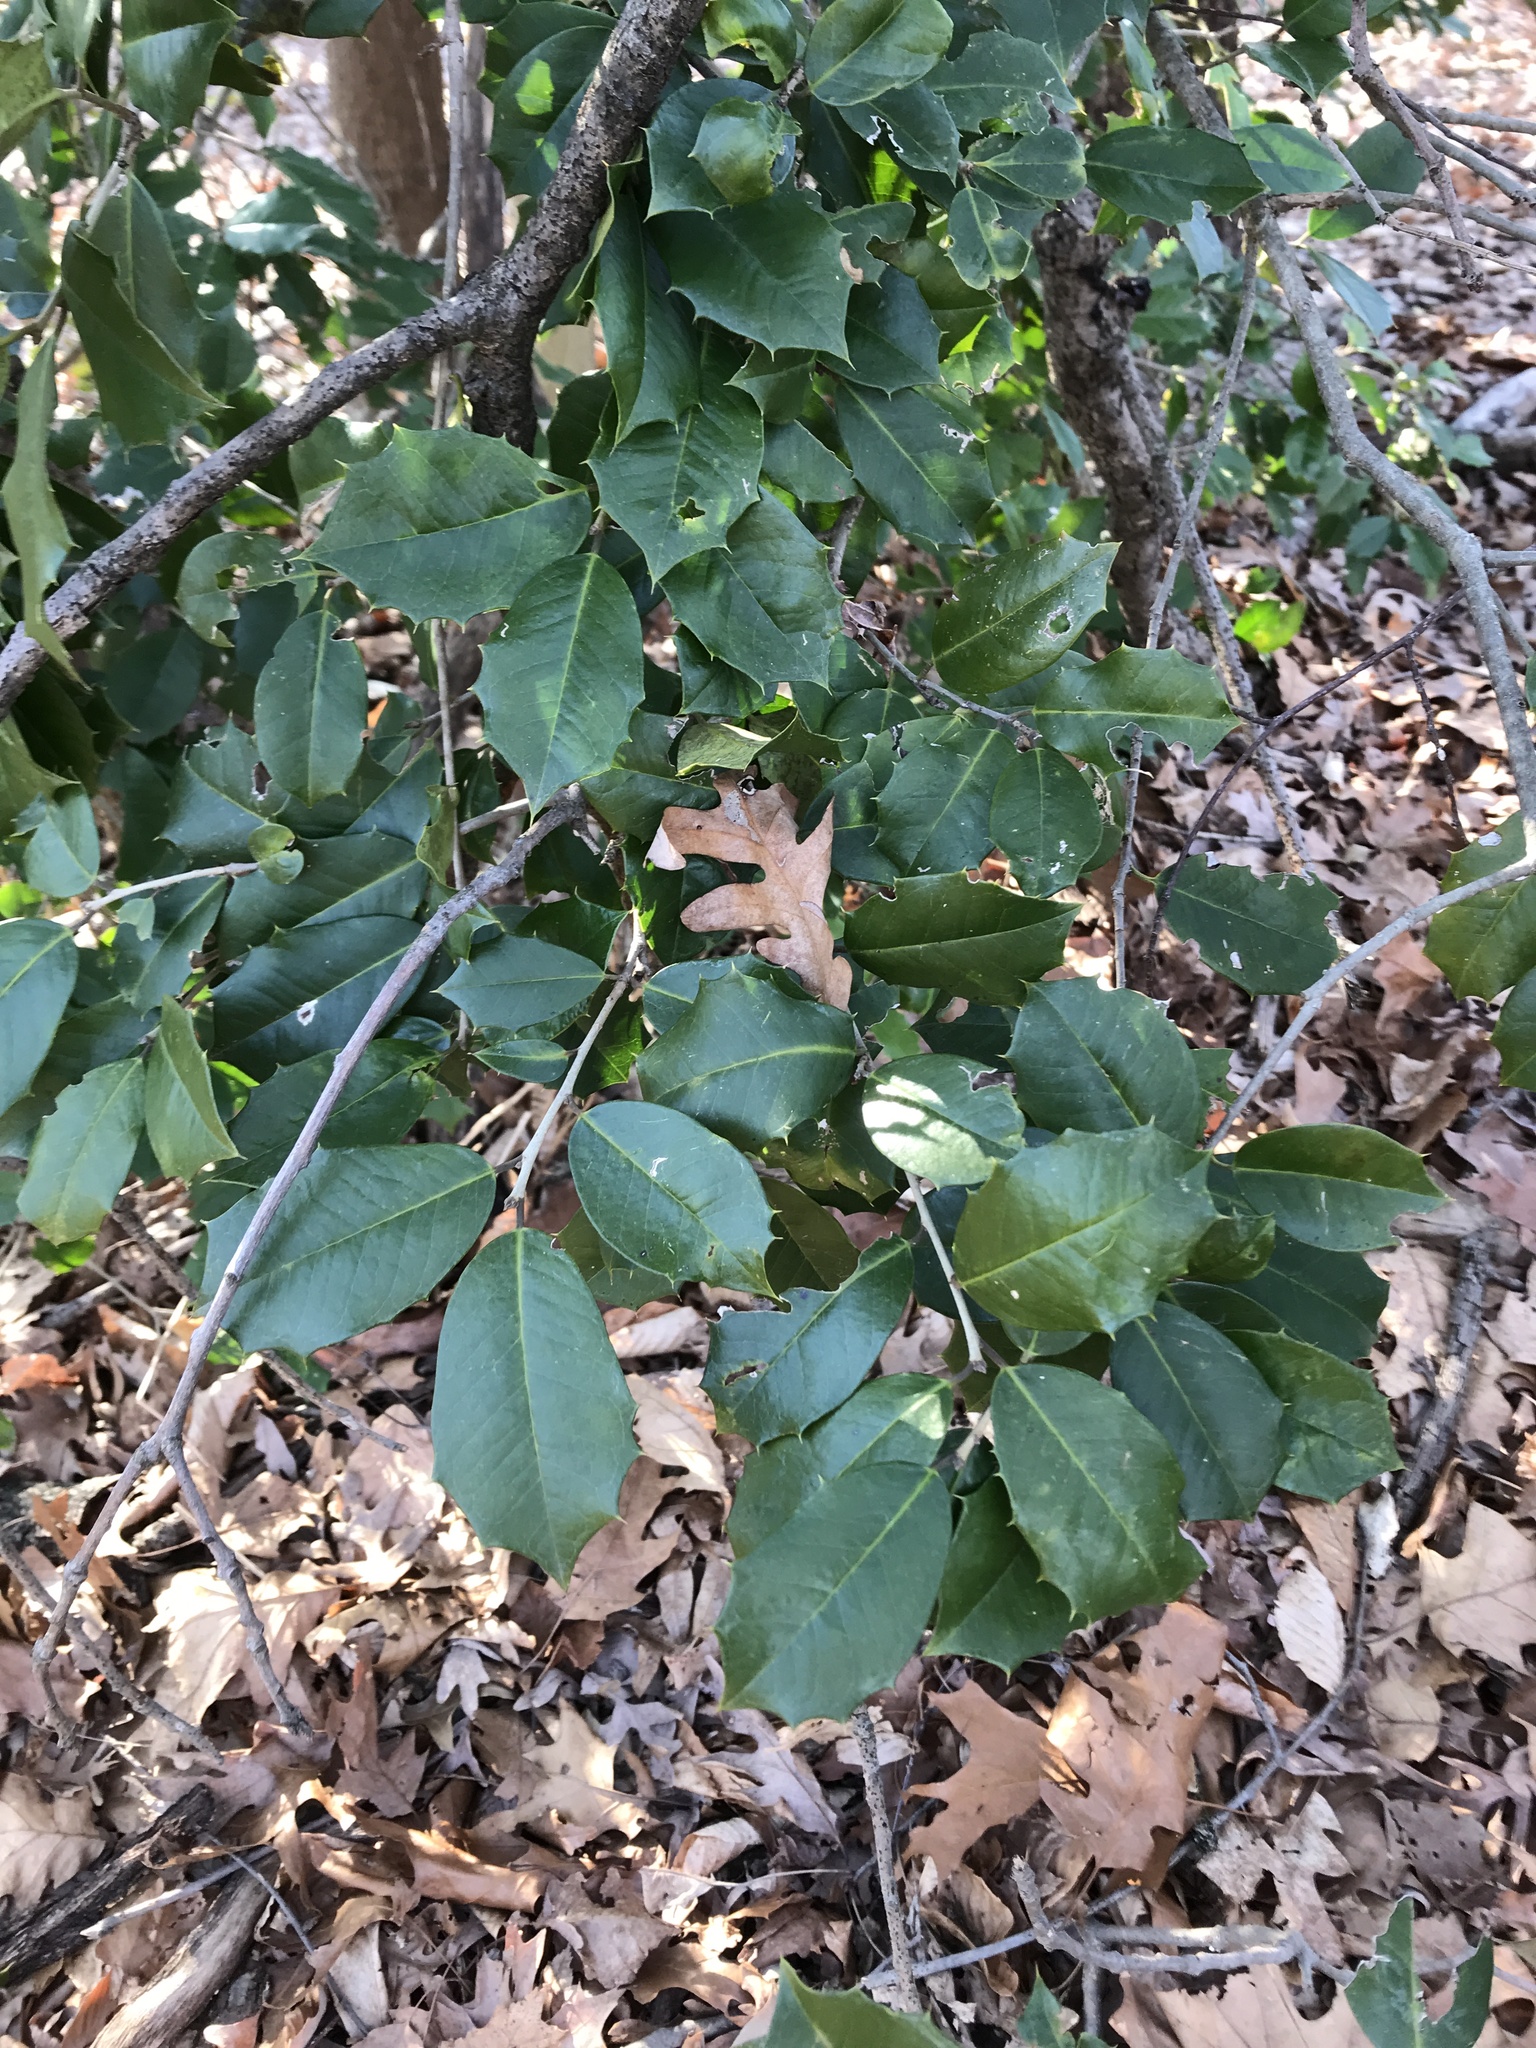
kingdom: Plantae
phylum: Tracheophyta
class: Magnoliopsida
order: Aquifoliales
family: Aquifoliaceae
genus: Ilex
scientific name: Ilex opaca
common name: American holly
